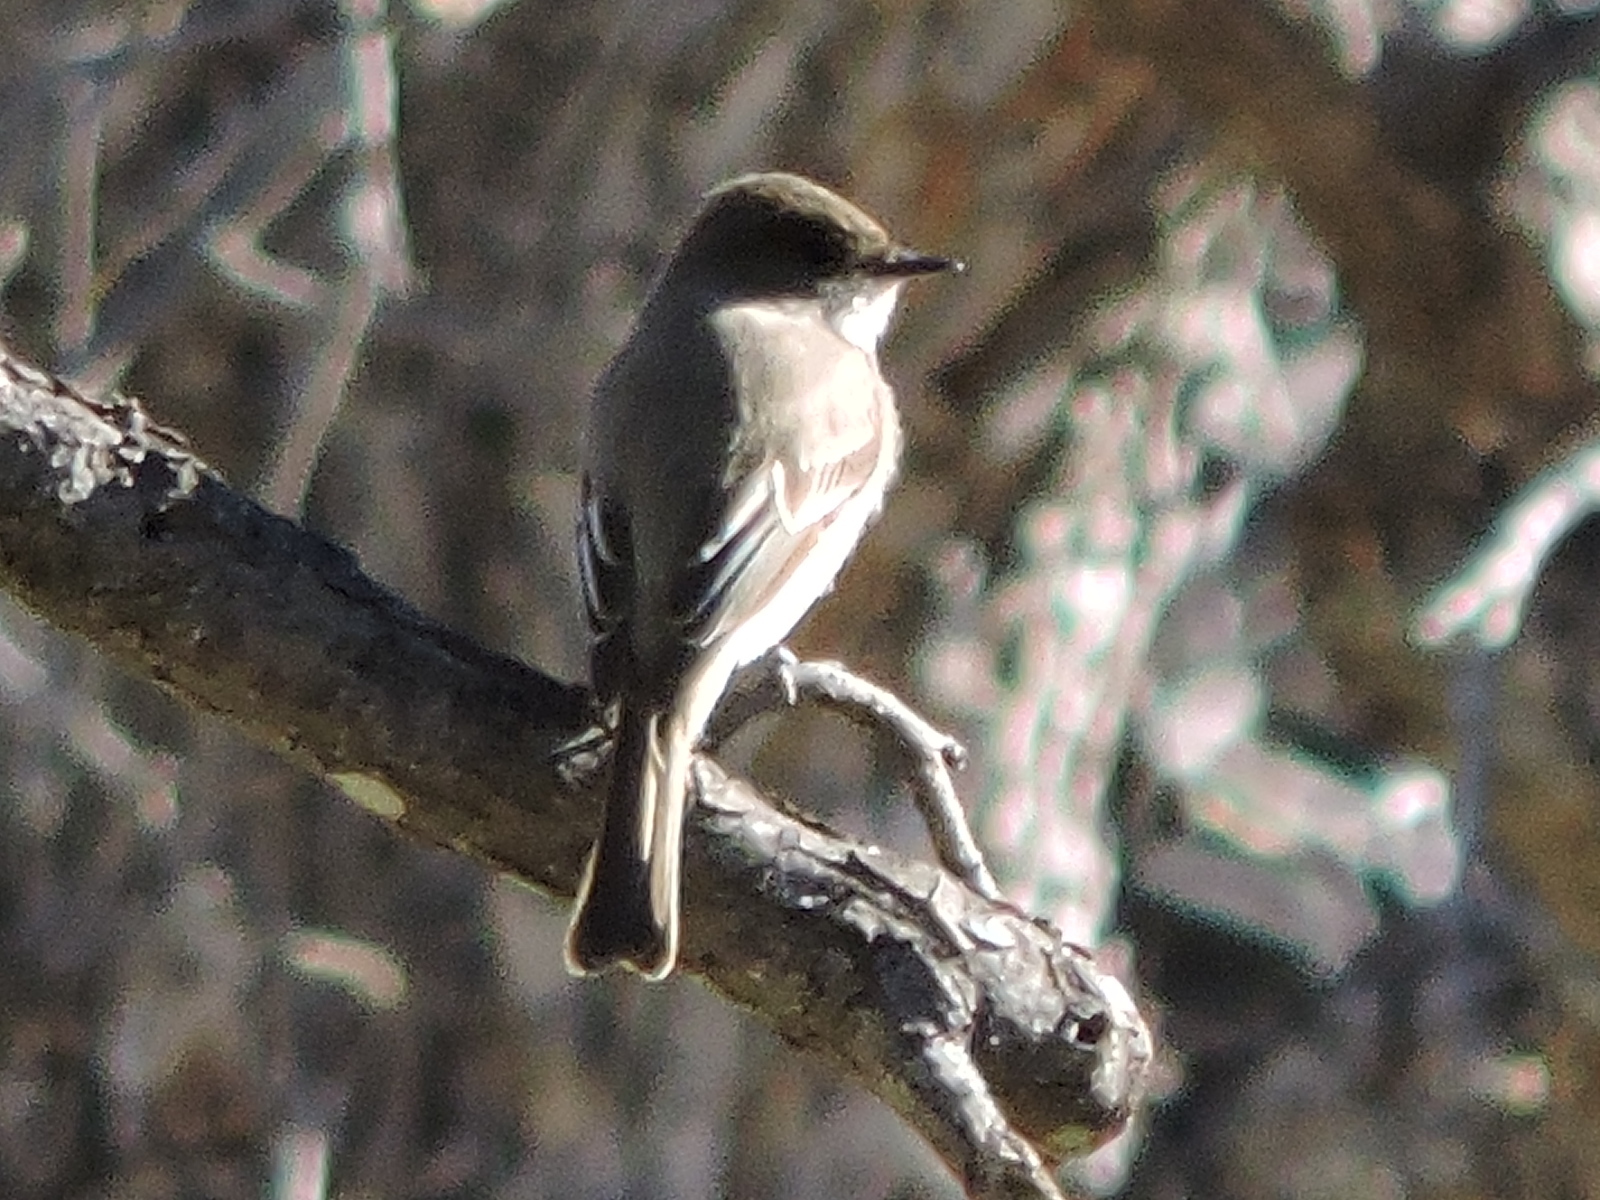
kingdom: Animalia
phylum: Chordata
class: Aves
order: Passeriformes
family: Tyrannidae
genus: Sayornis
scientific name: Sayornis phoebe
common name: Eastern phoebe
